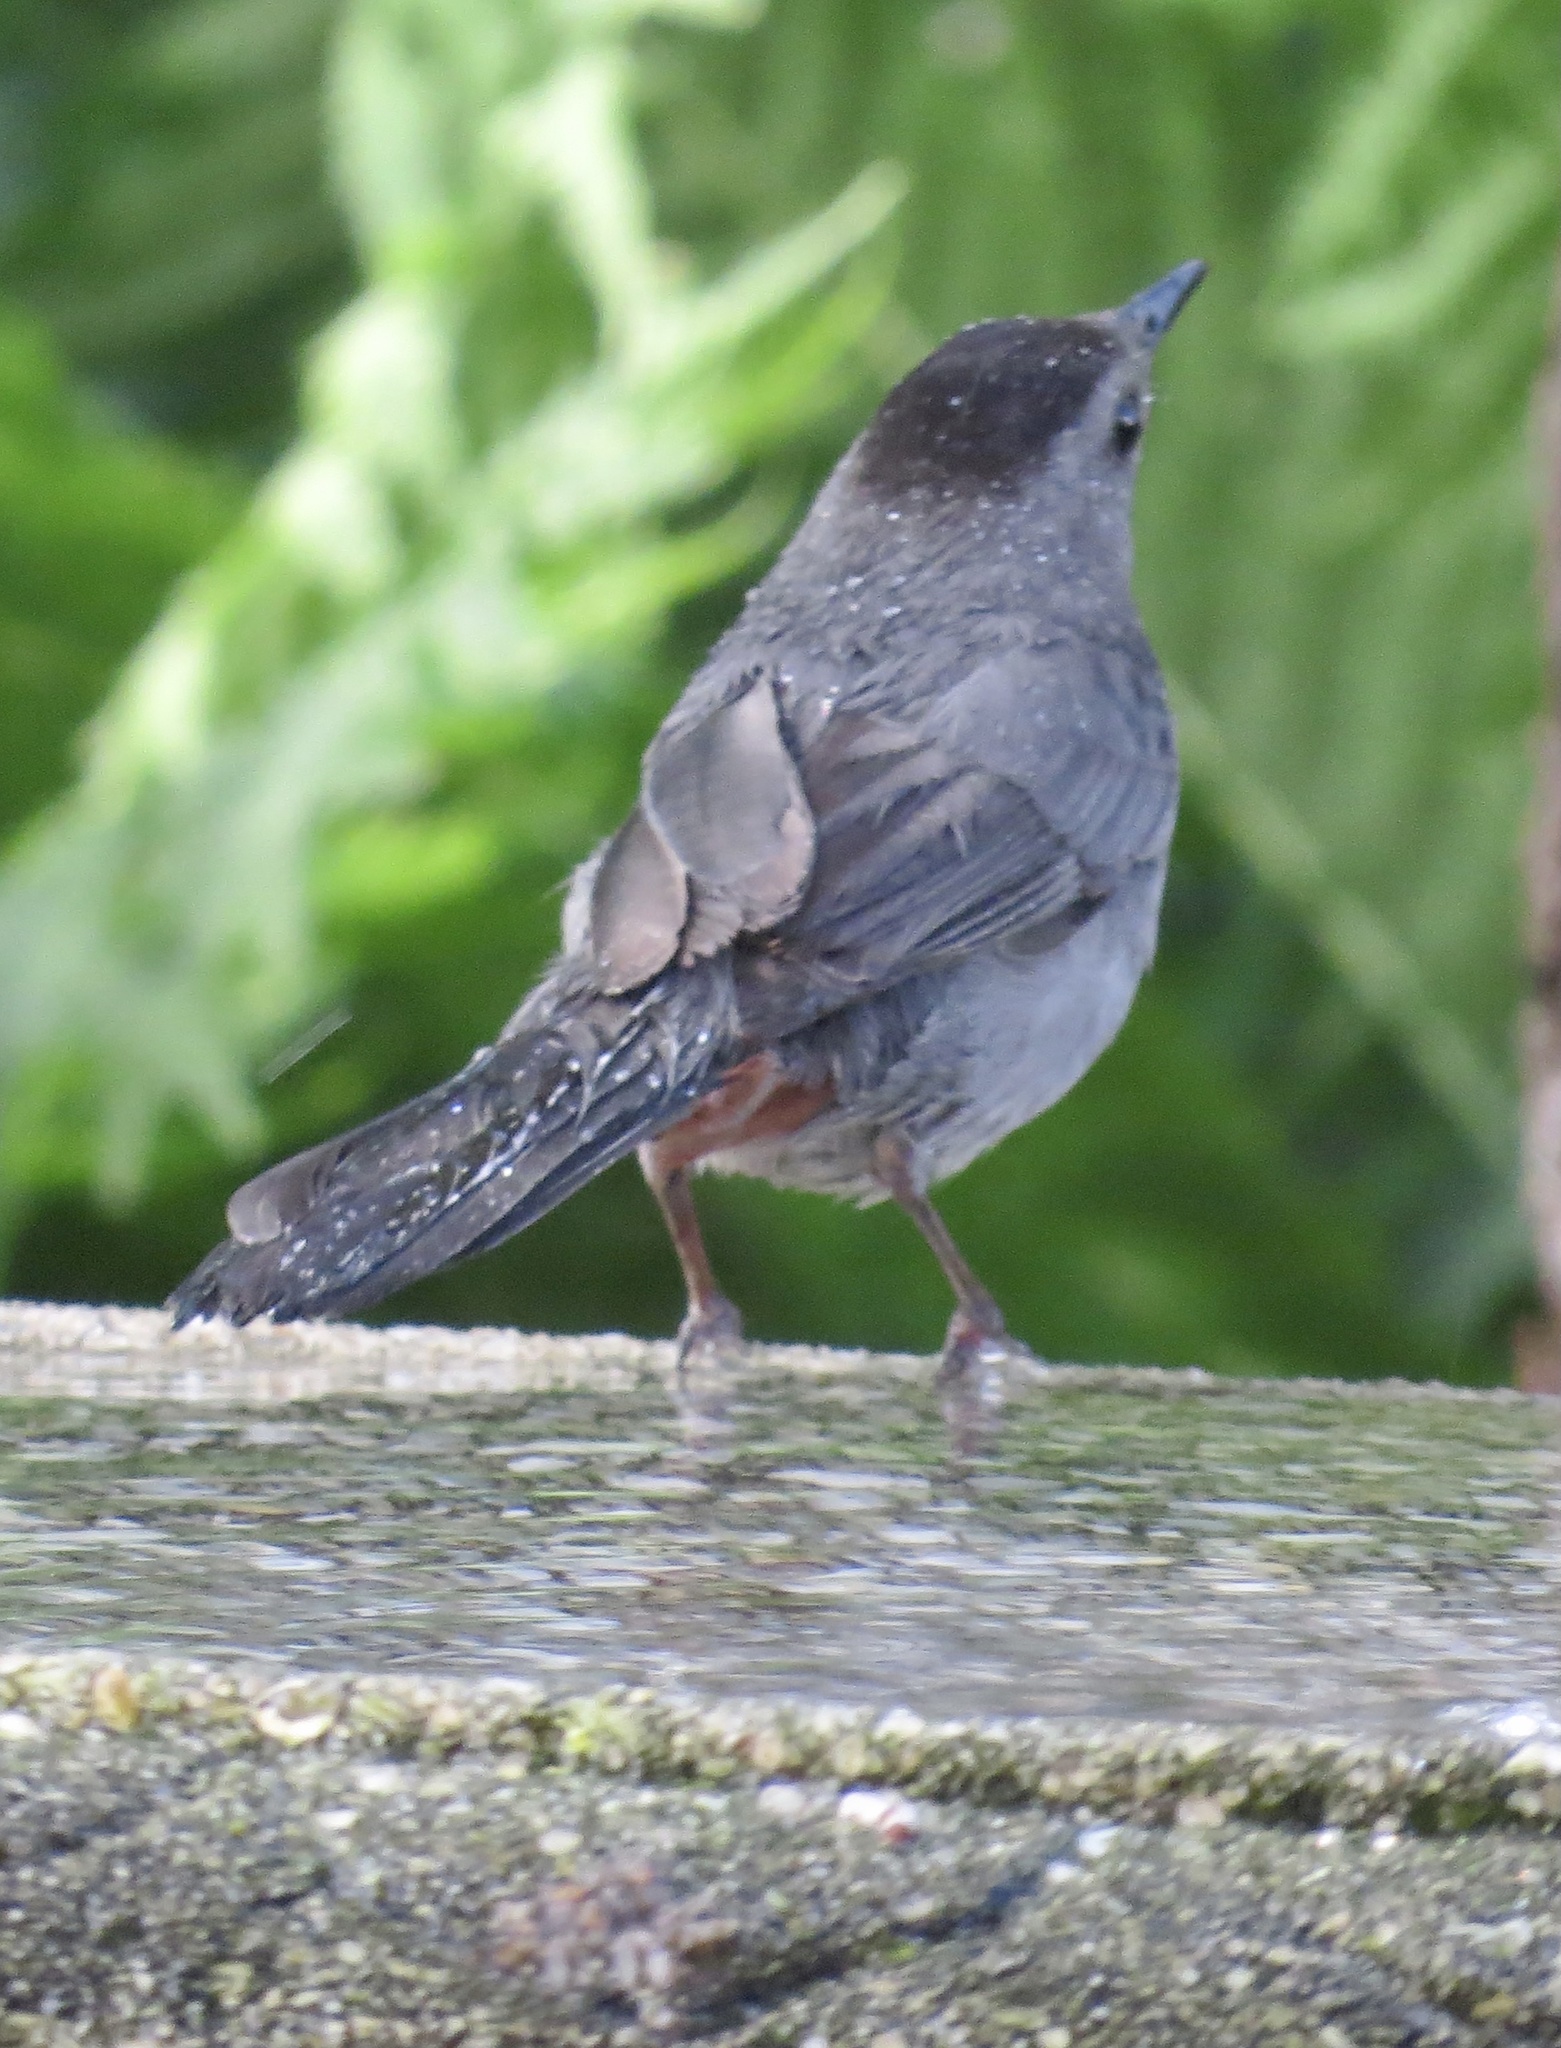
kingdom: Animalia
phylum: Chordata
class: Aves
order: Passeriformes
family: Mimidae
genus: Dumetella
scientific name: Dumetella carolinensis
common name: Gray catbird
